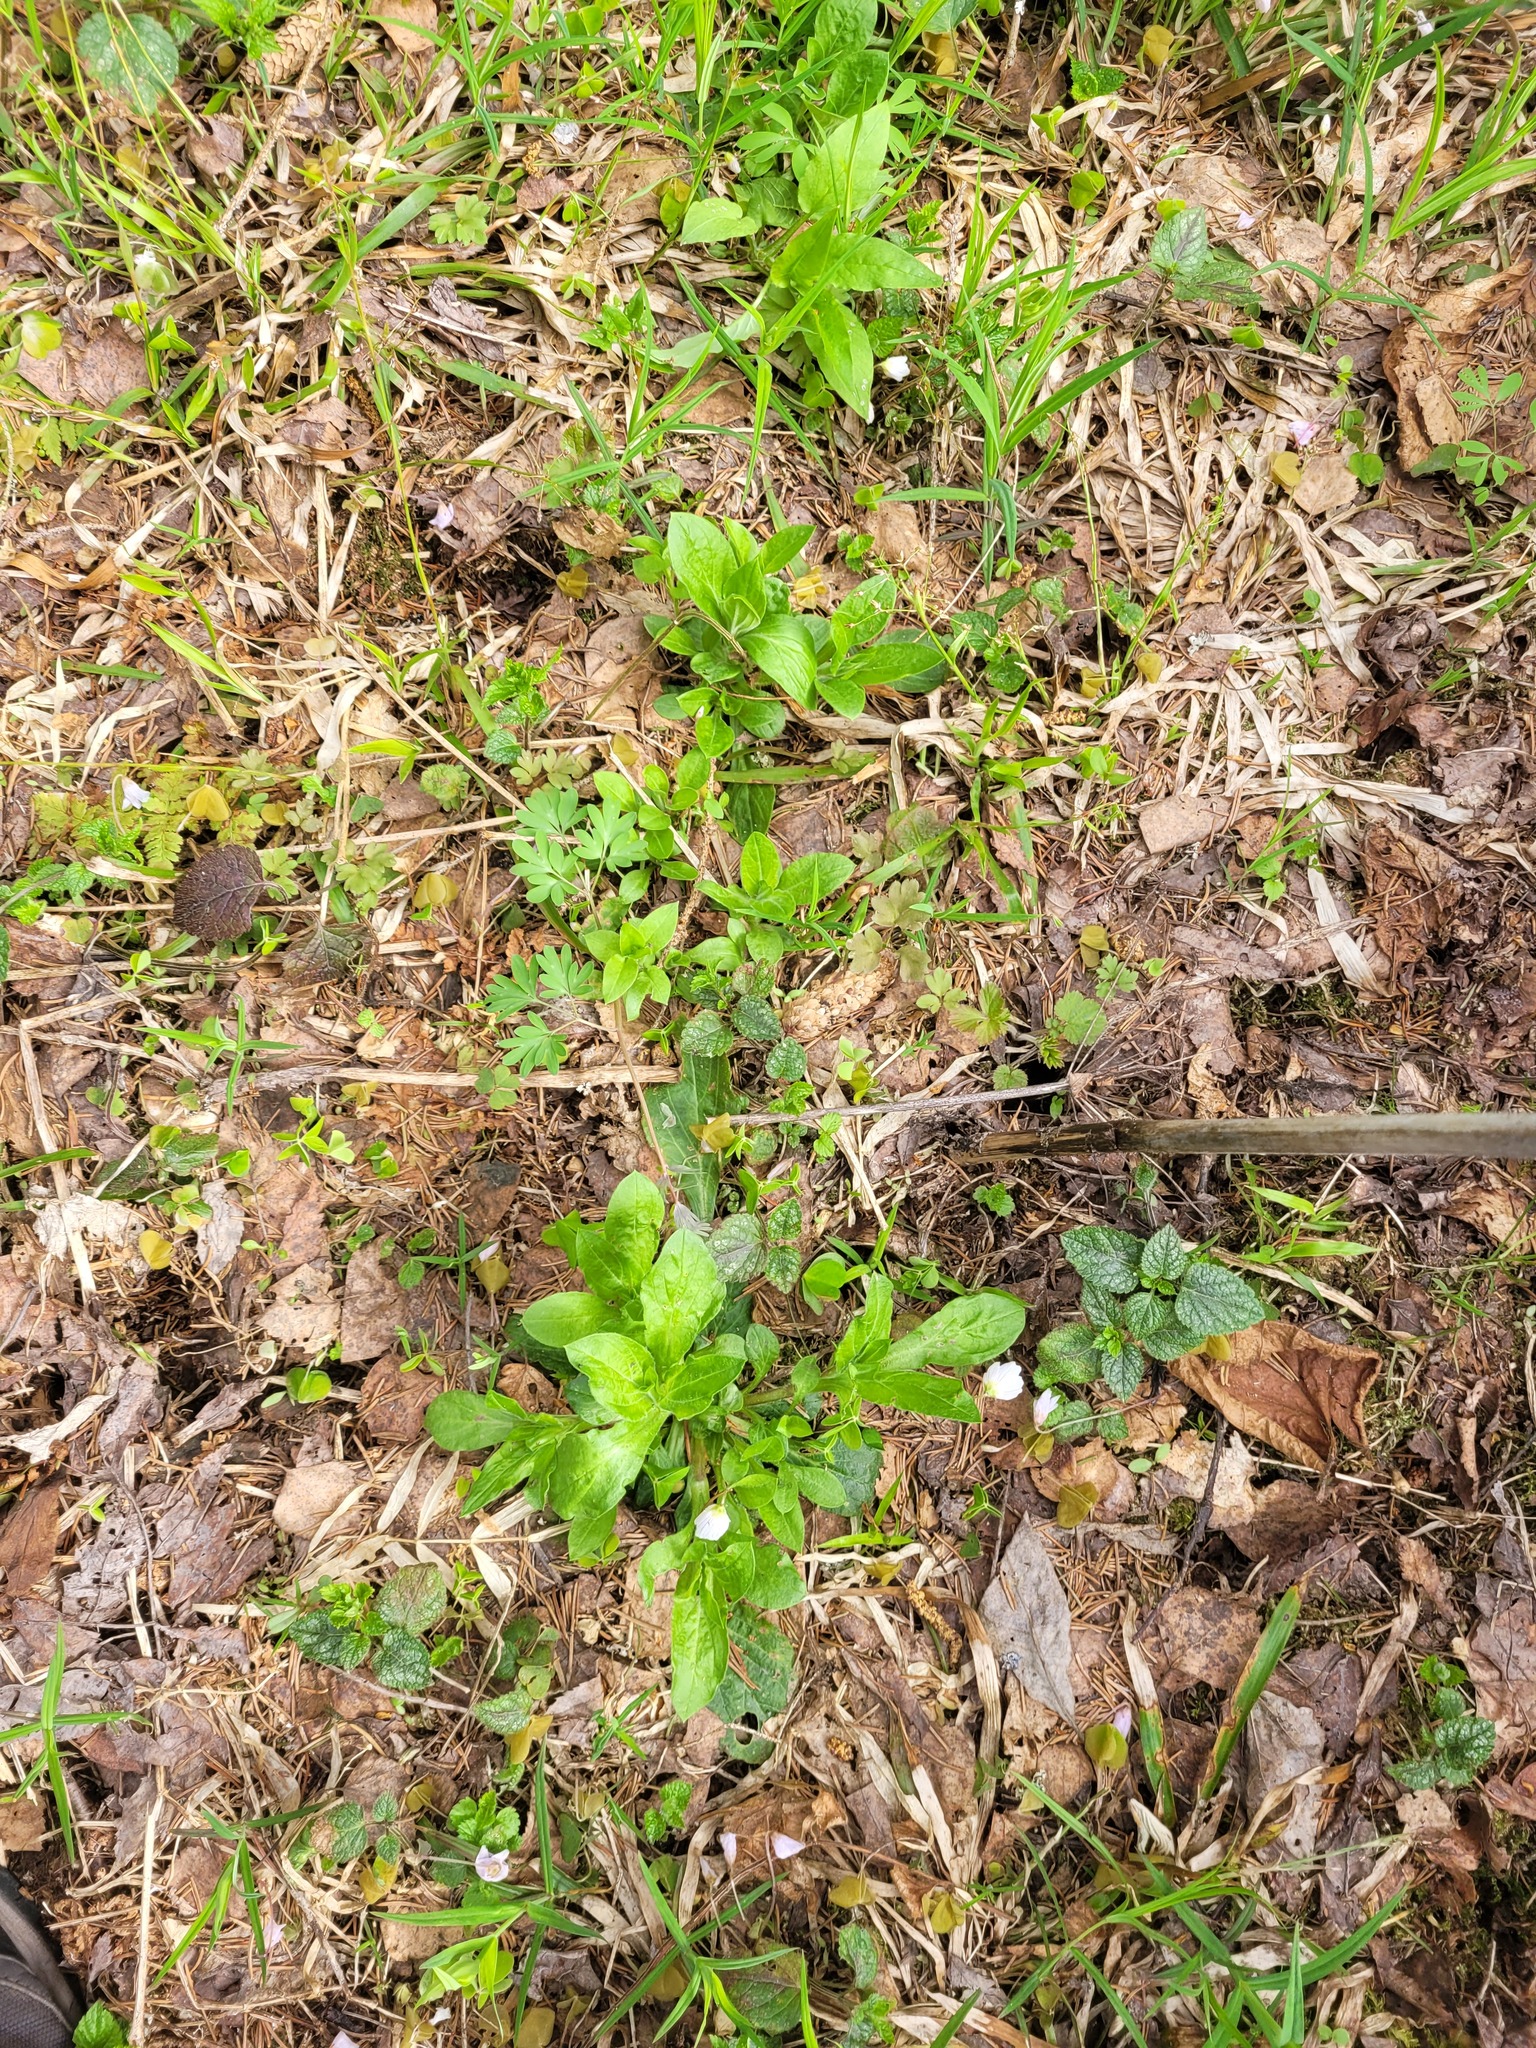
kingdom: Plantae
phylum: Tracheophyta
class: Magnoliopsida
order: Caryophyllales
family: Caryophyllaceae
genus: Silene
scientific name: Silene dioica
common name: Red campion
